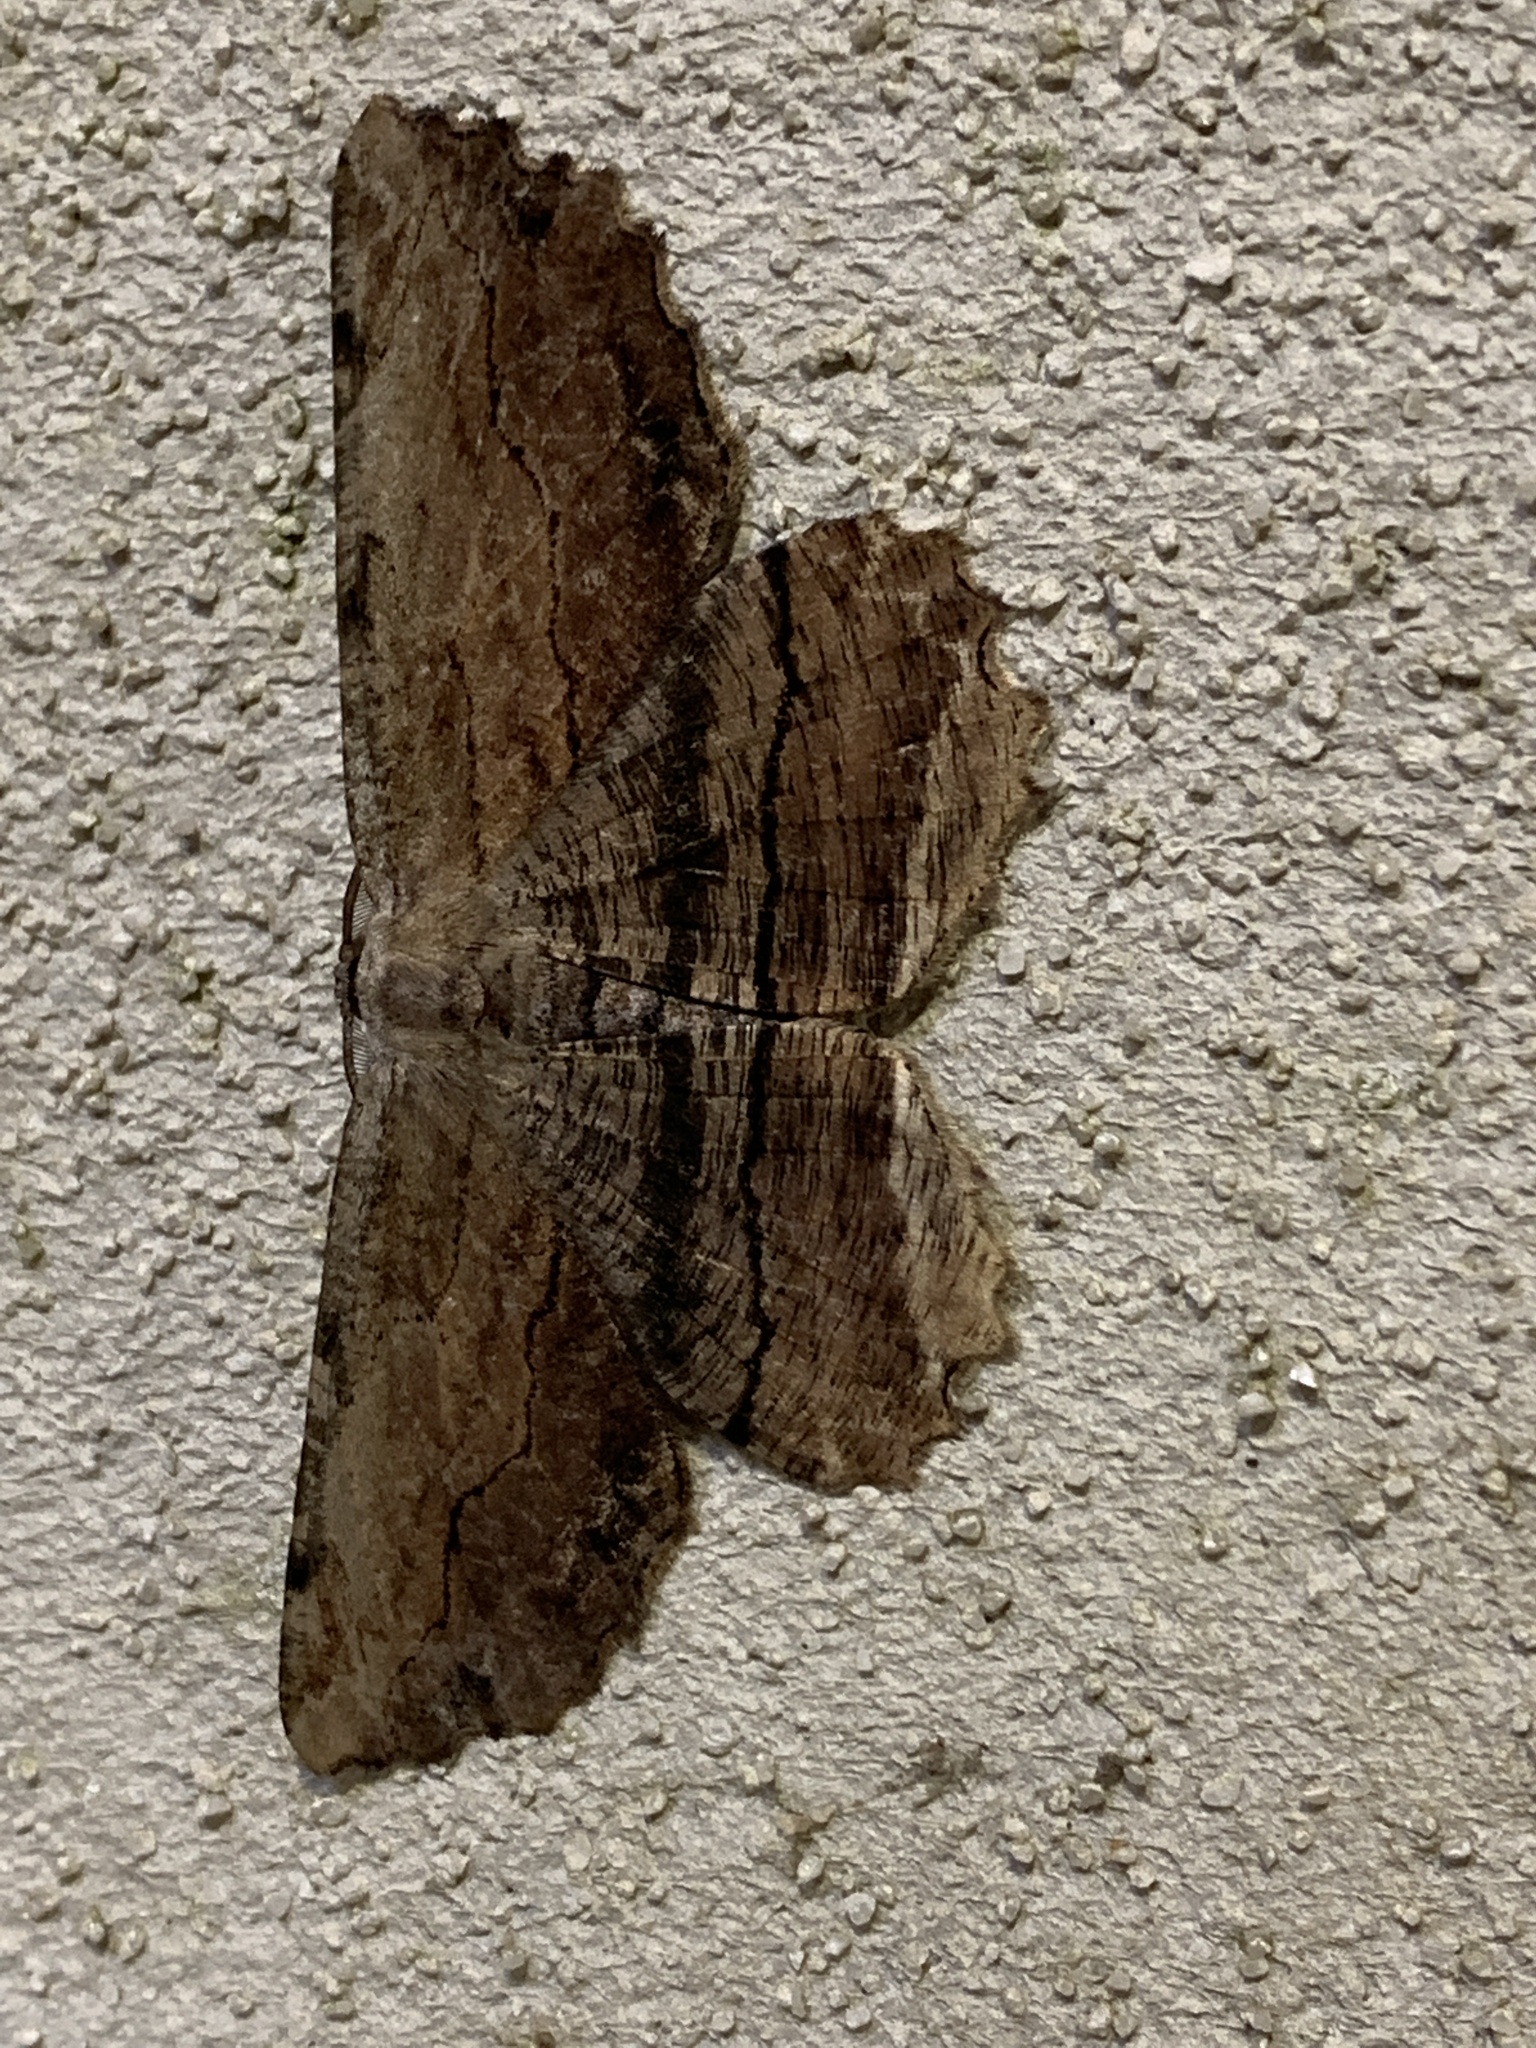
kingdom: Animalia
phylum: Arthropoda
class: Insecta
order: Lepidoptera
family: Geometridae
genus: Lytrosis
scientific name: Lytrosis unitaria
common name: Common lytrosis
